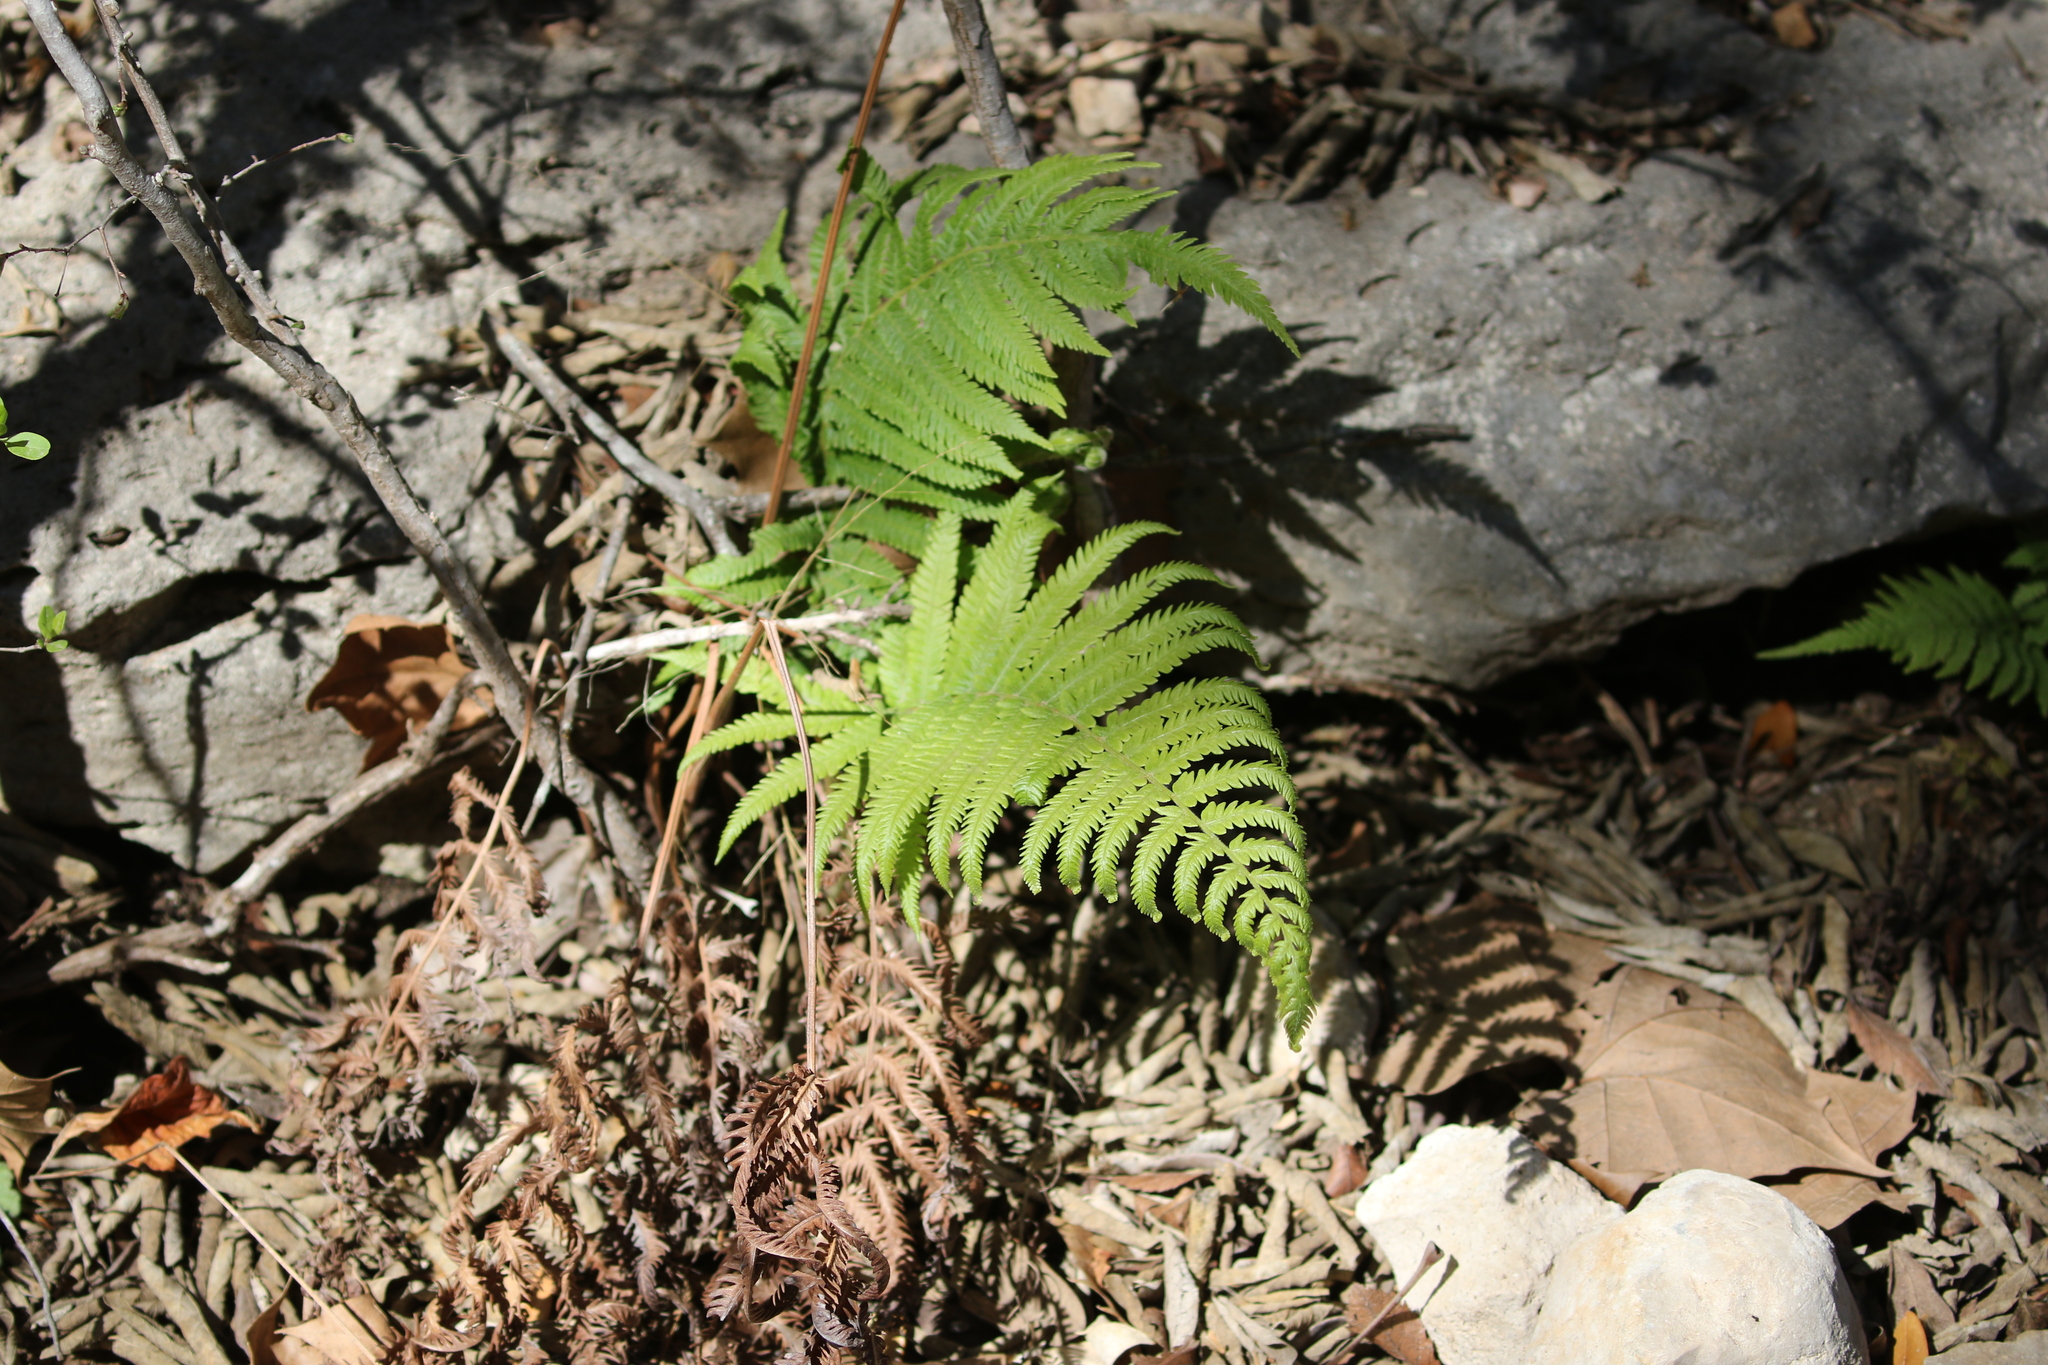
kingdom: Plantae
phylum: Tracheophyta
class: Polypodiopsida
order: Polypodiales
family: Thelypteridaceae
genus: Pelazoneuron
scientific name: Pelazoneuron ovatum
